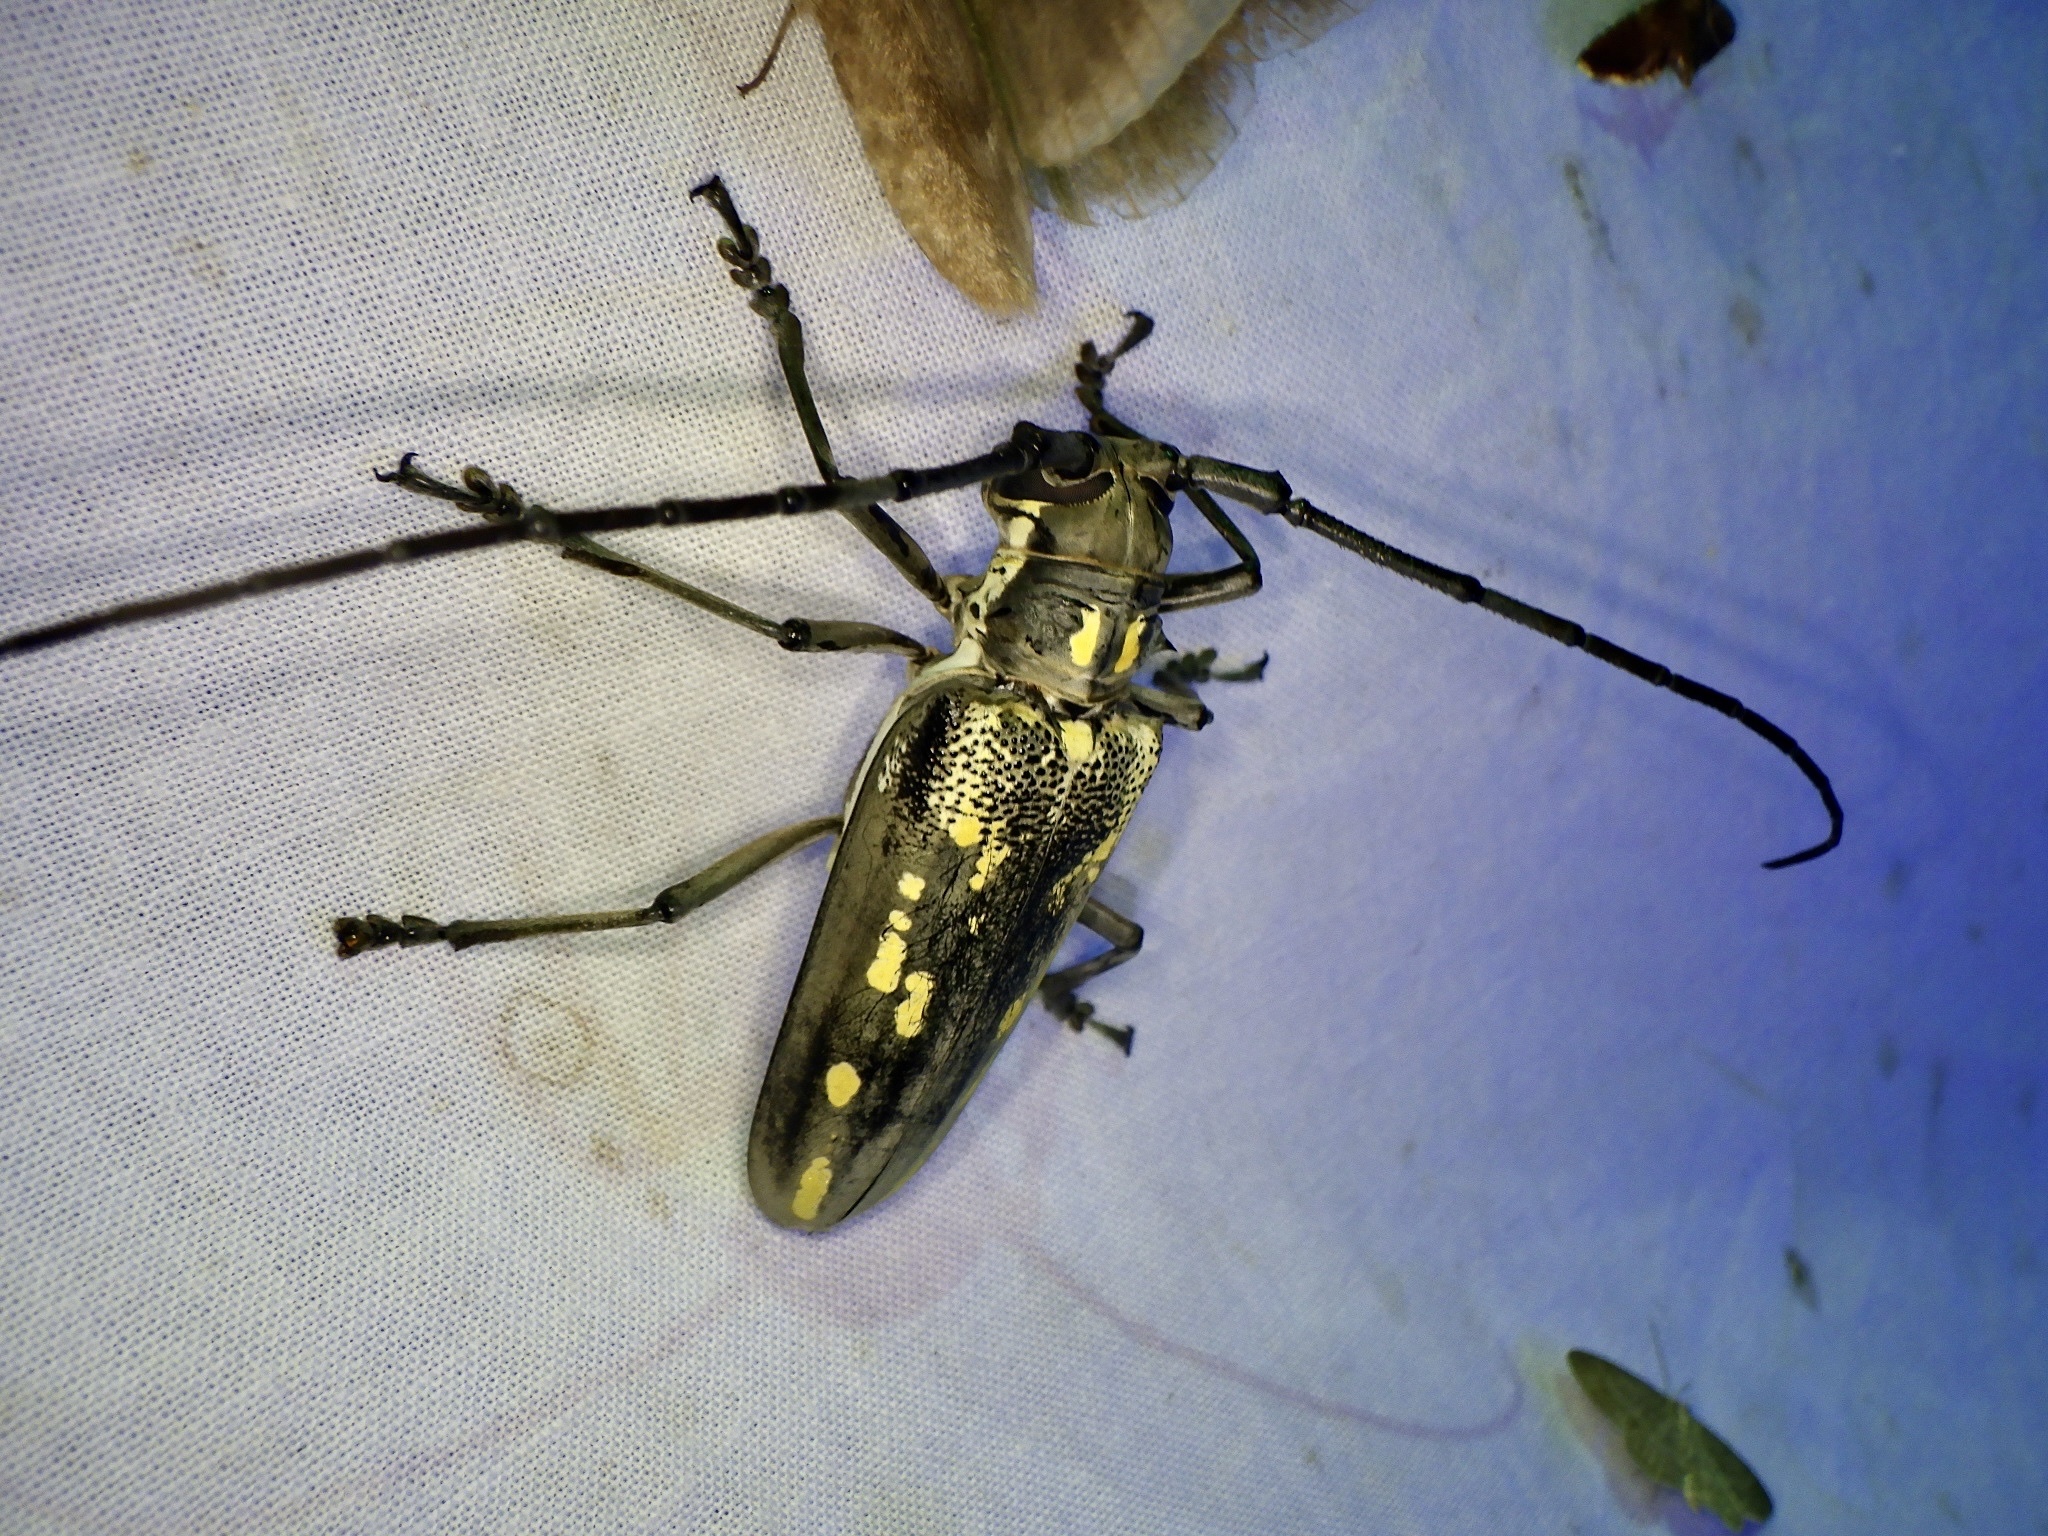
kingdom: Animalia
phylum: Arthropoda
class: Insecta
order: Coleoptera
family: Cerambycidae
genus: Batocera
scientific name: Batocera lineolata
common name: Whitestriped long-horned beetle
